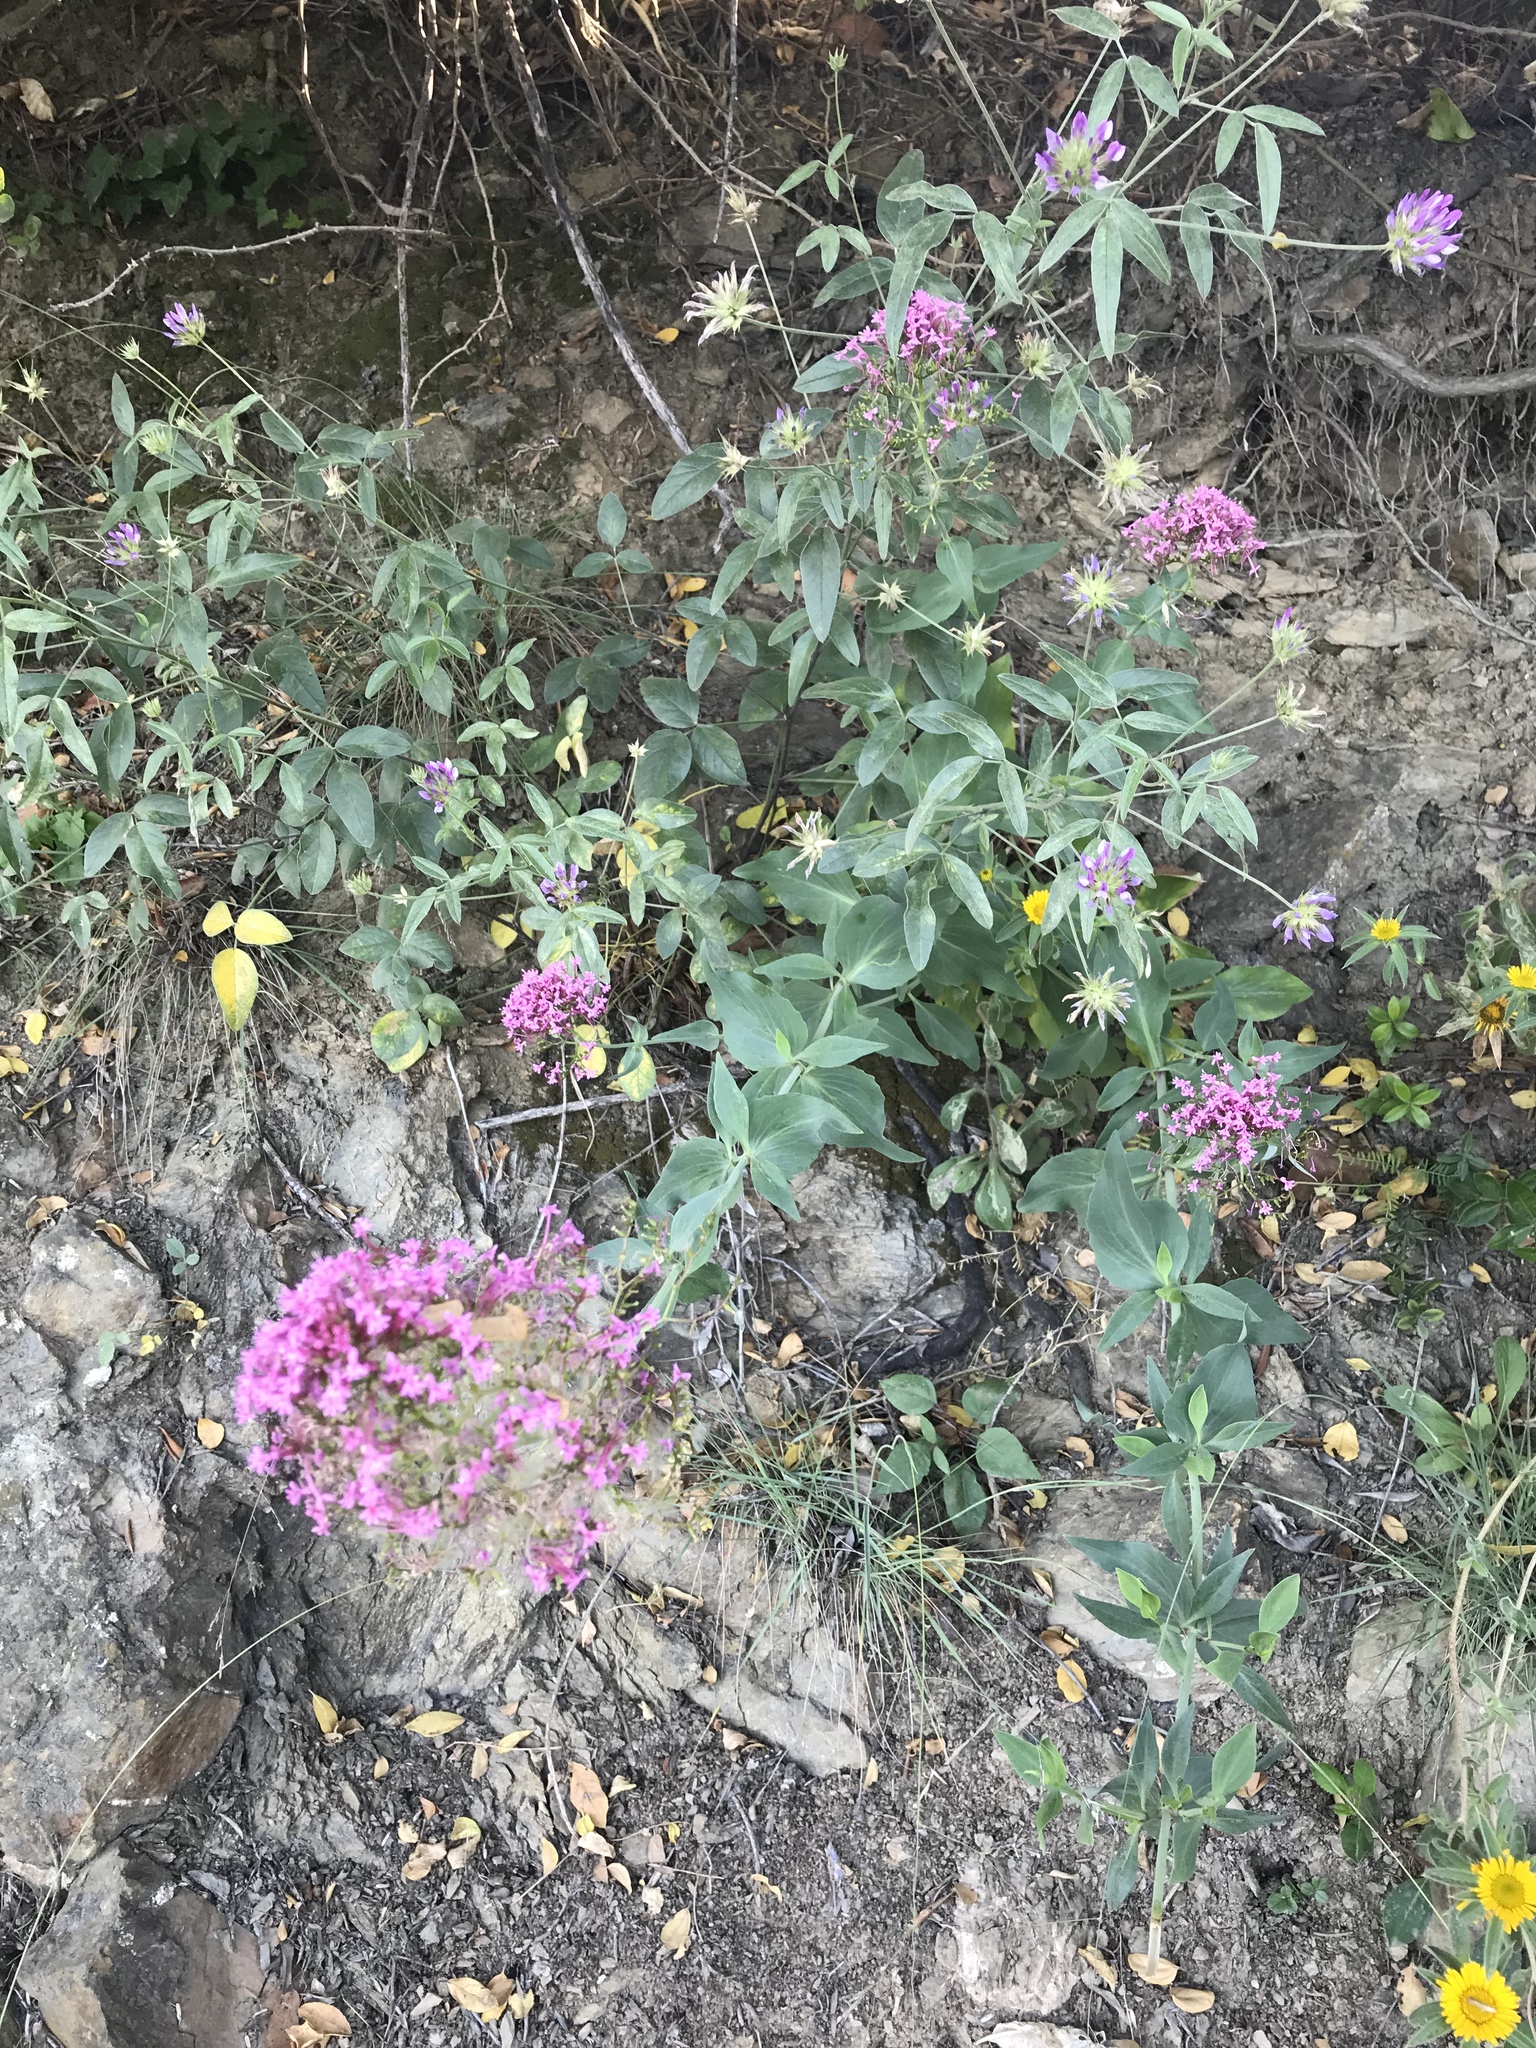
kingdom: Plantae
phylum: Tracheophyta
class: Magnoliopsida
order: Dipsacales
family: Caprifoliaceae
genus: Centranthus
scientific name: Centranthus ruber
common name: Red valerian
